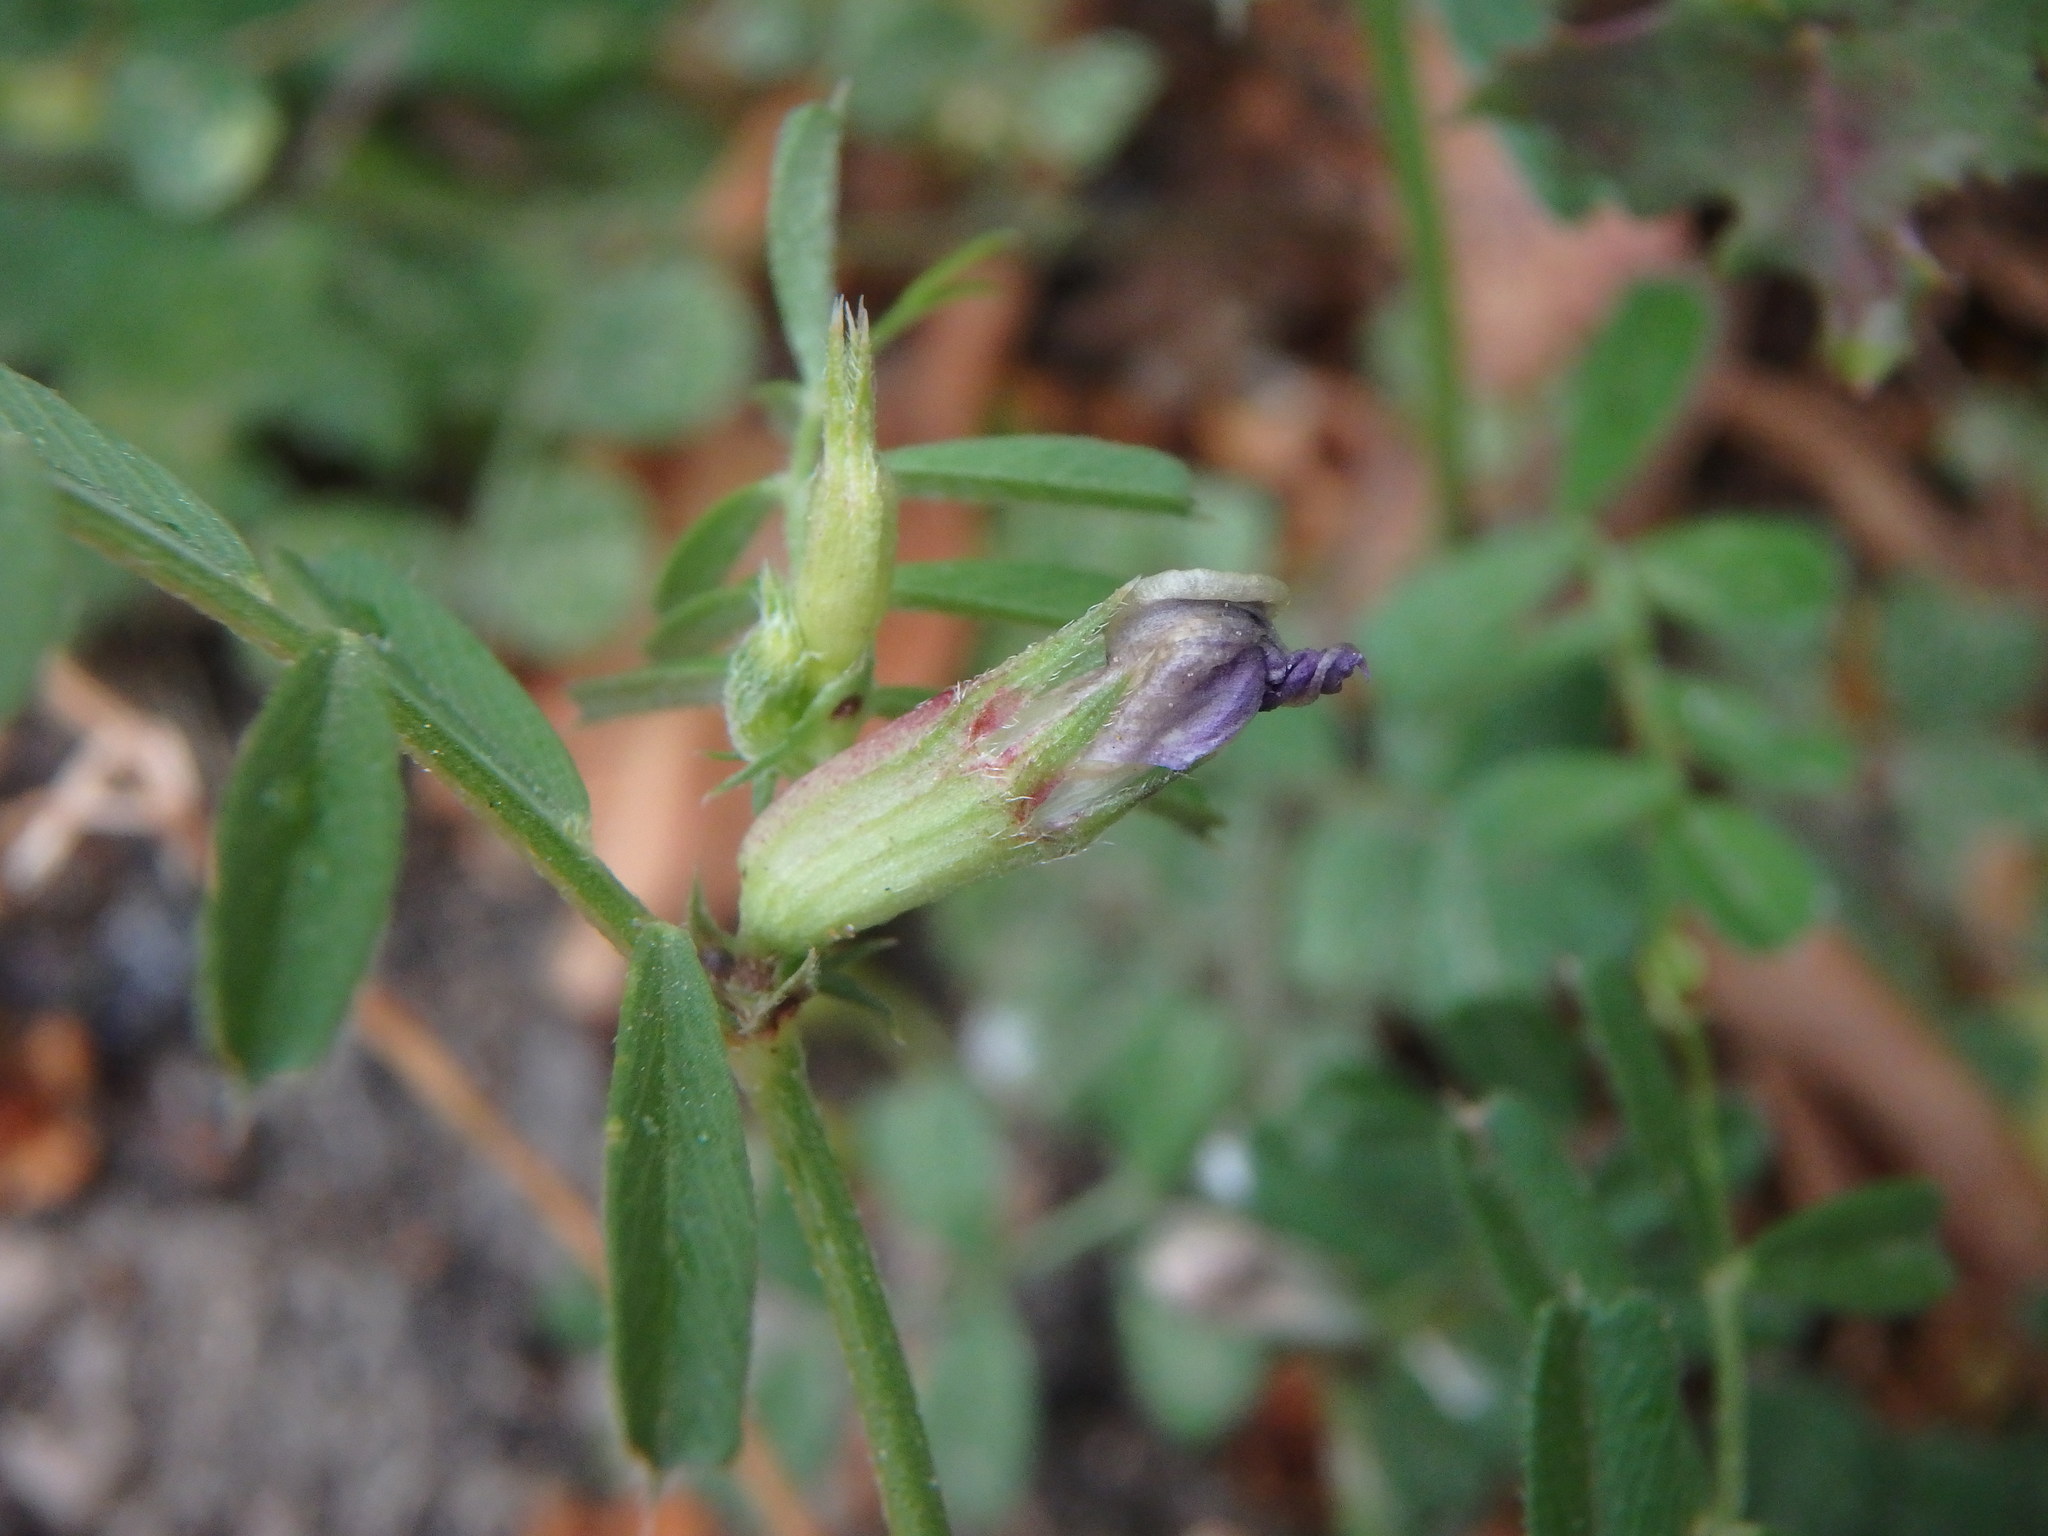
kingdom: Plantae
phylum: Tracheophyta
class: Magnoliopsida
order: Fabales
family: Fabaceae
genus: Vicia
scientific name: Vicia sativa
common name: Garden vetch
